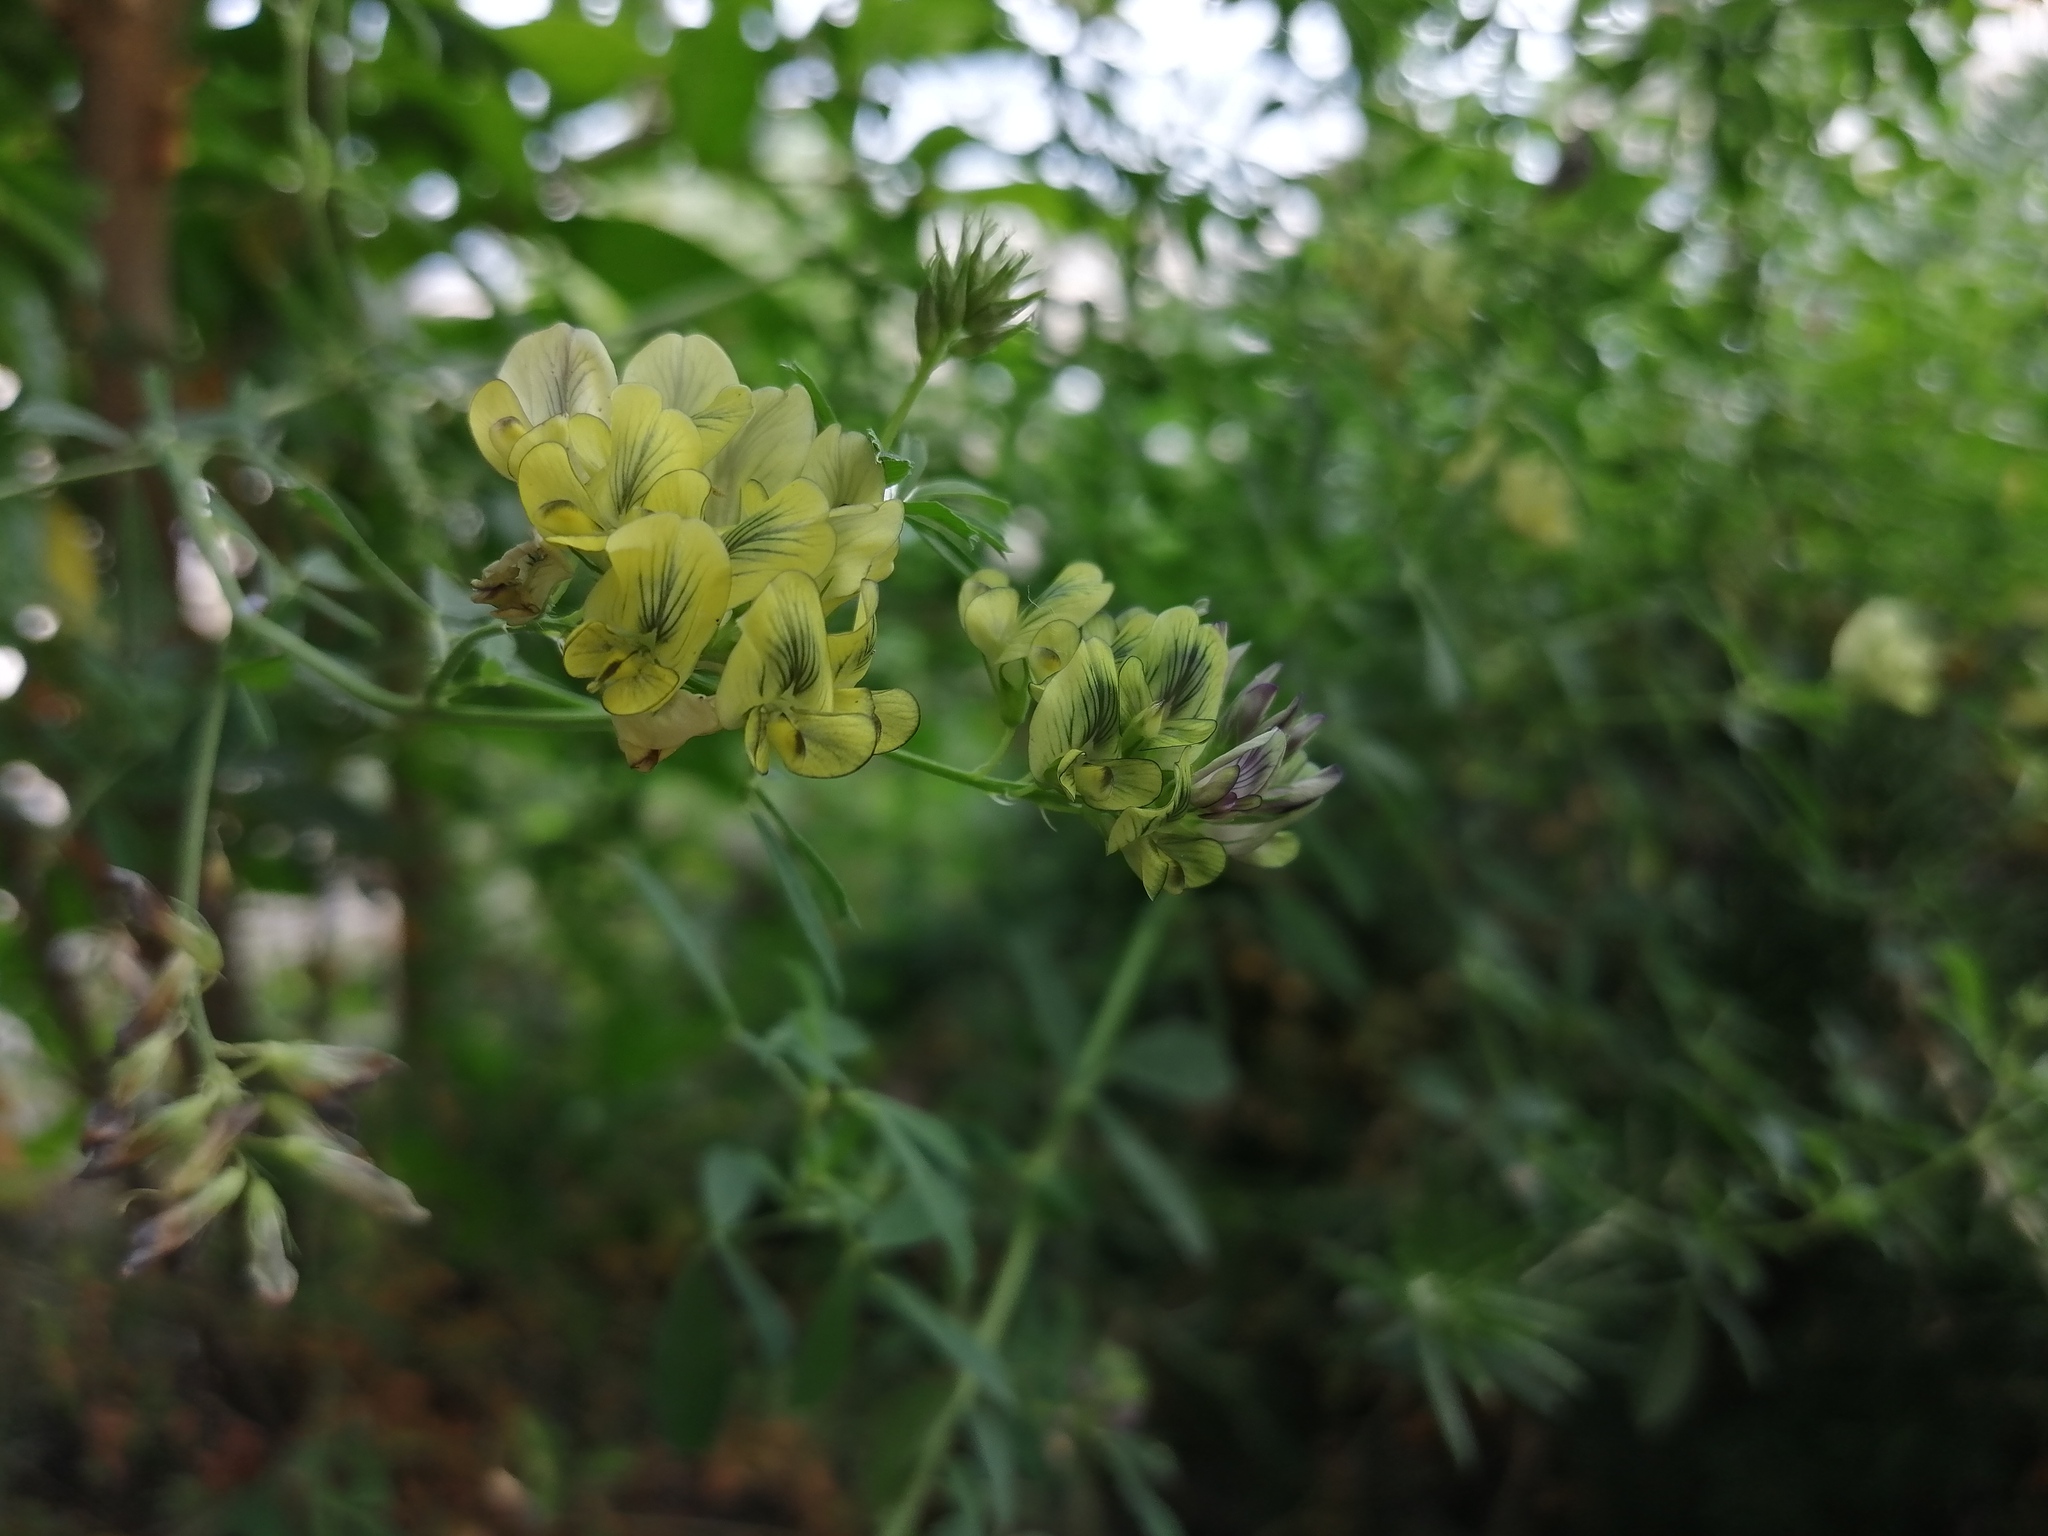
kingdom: Plantae
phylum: Tracheophyta
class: Magnoliopsida
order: Fabales
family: Fabaceae
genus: Medicago
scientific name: Medicago varia
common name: Sand lucerne
